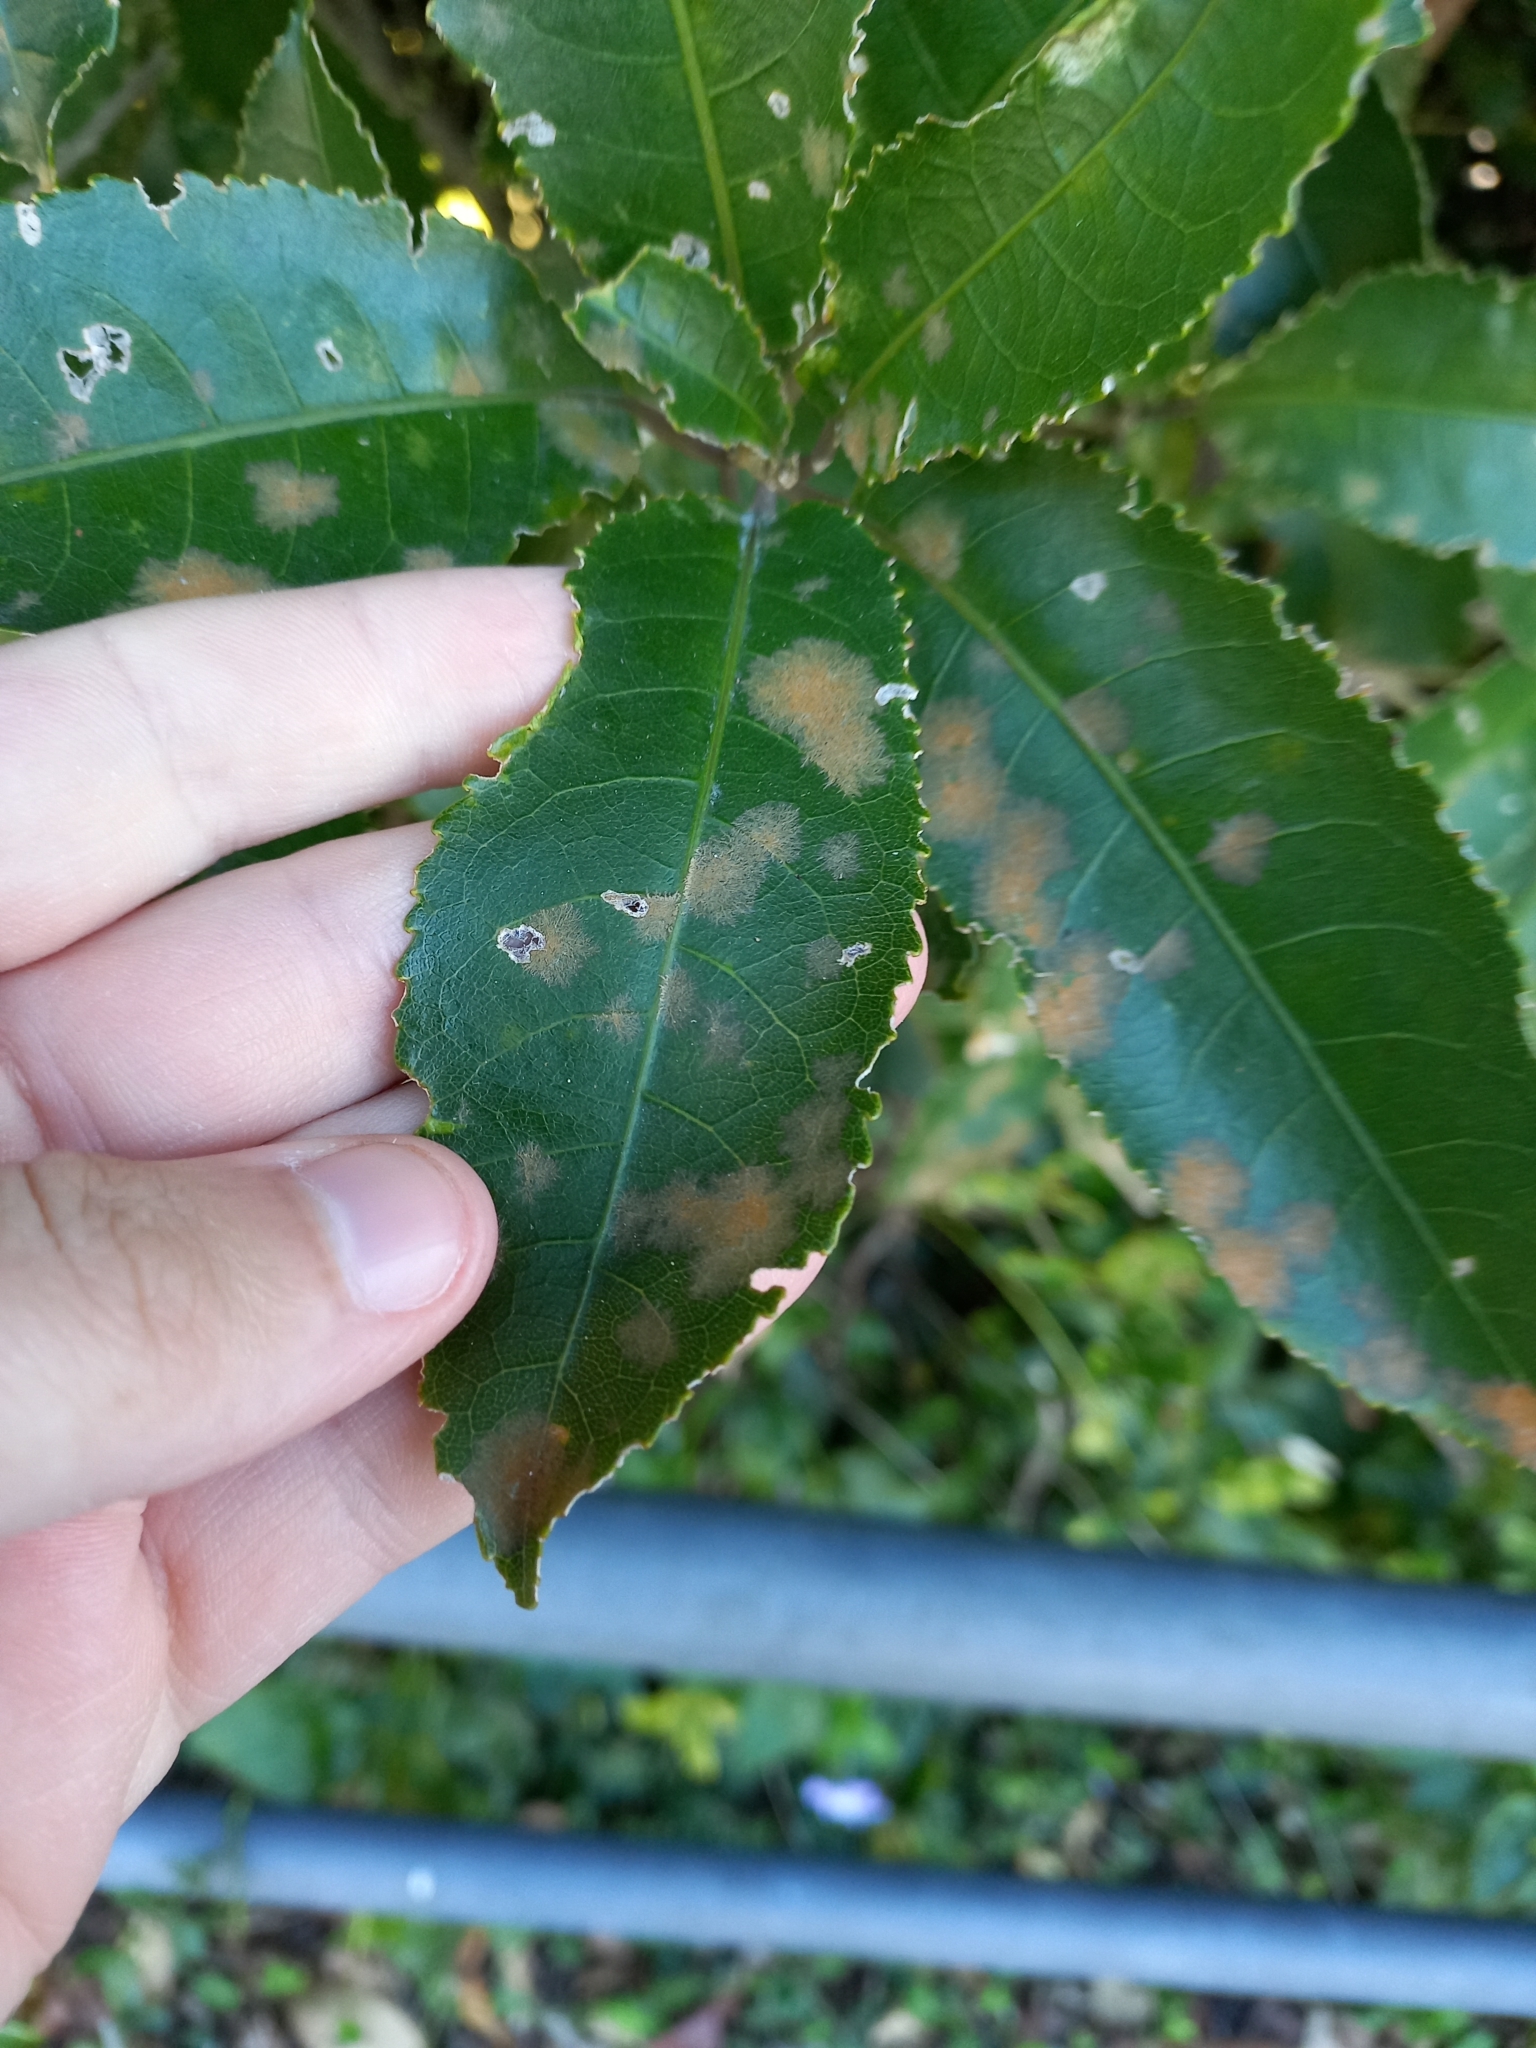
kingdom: Plantae
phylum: Chlorophyta
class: Ulvophyceae
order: Trentepohliales
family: Trentepohliaceae
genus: Cephaleuros
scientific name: Cephaleuros
